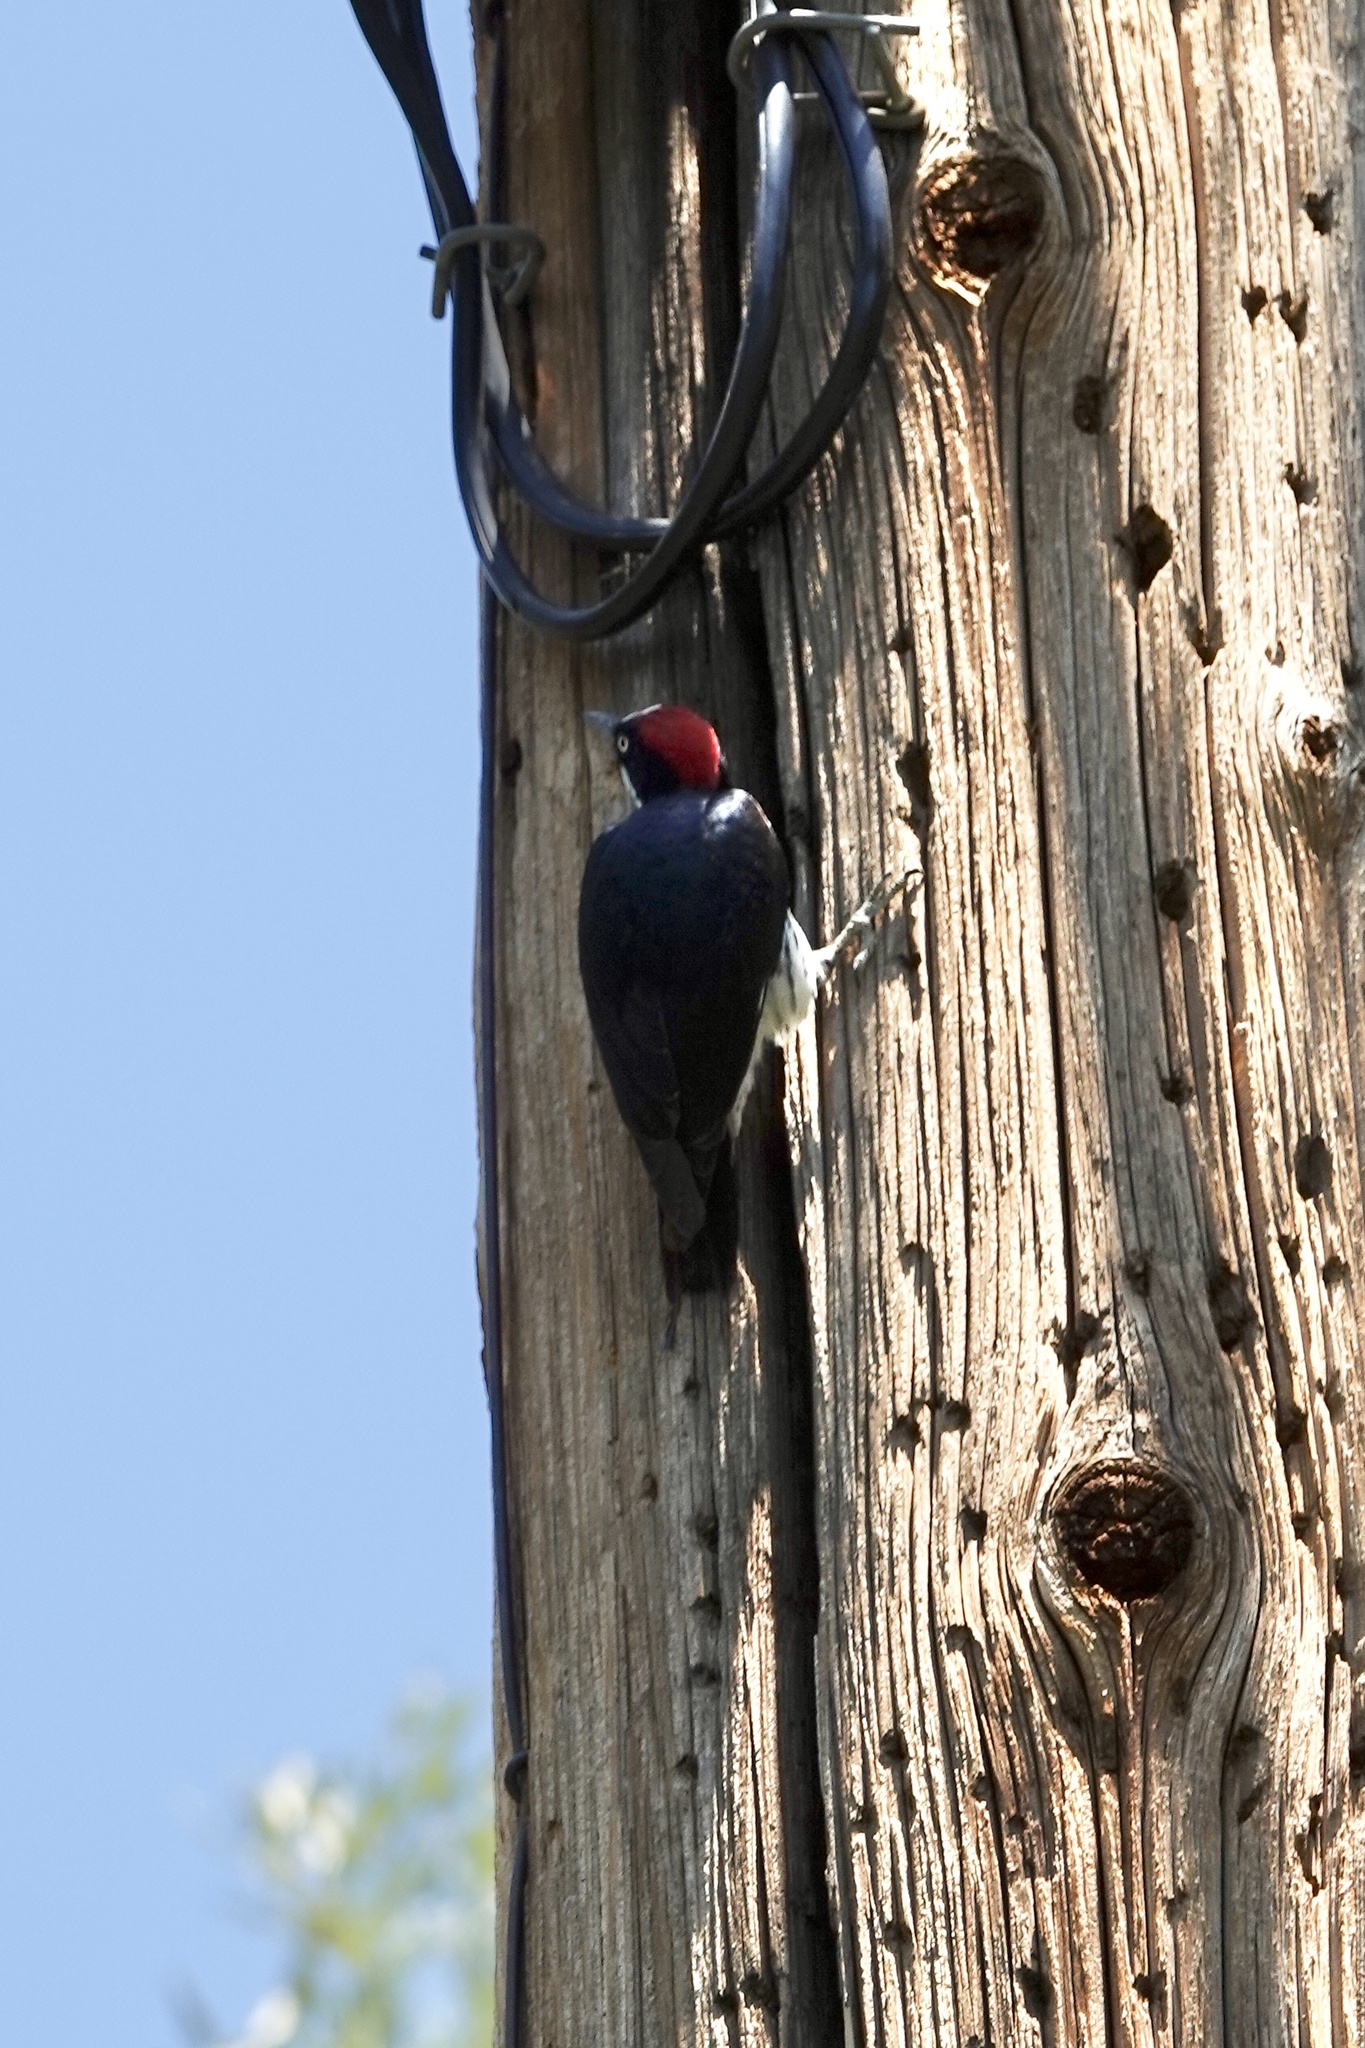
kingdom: Animalia
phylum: Chordata
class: Aves
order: Piciformes
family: Picidae
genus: Melanerpes
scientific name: Melanerpes formicivorus
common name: Acorn woodpecker
